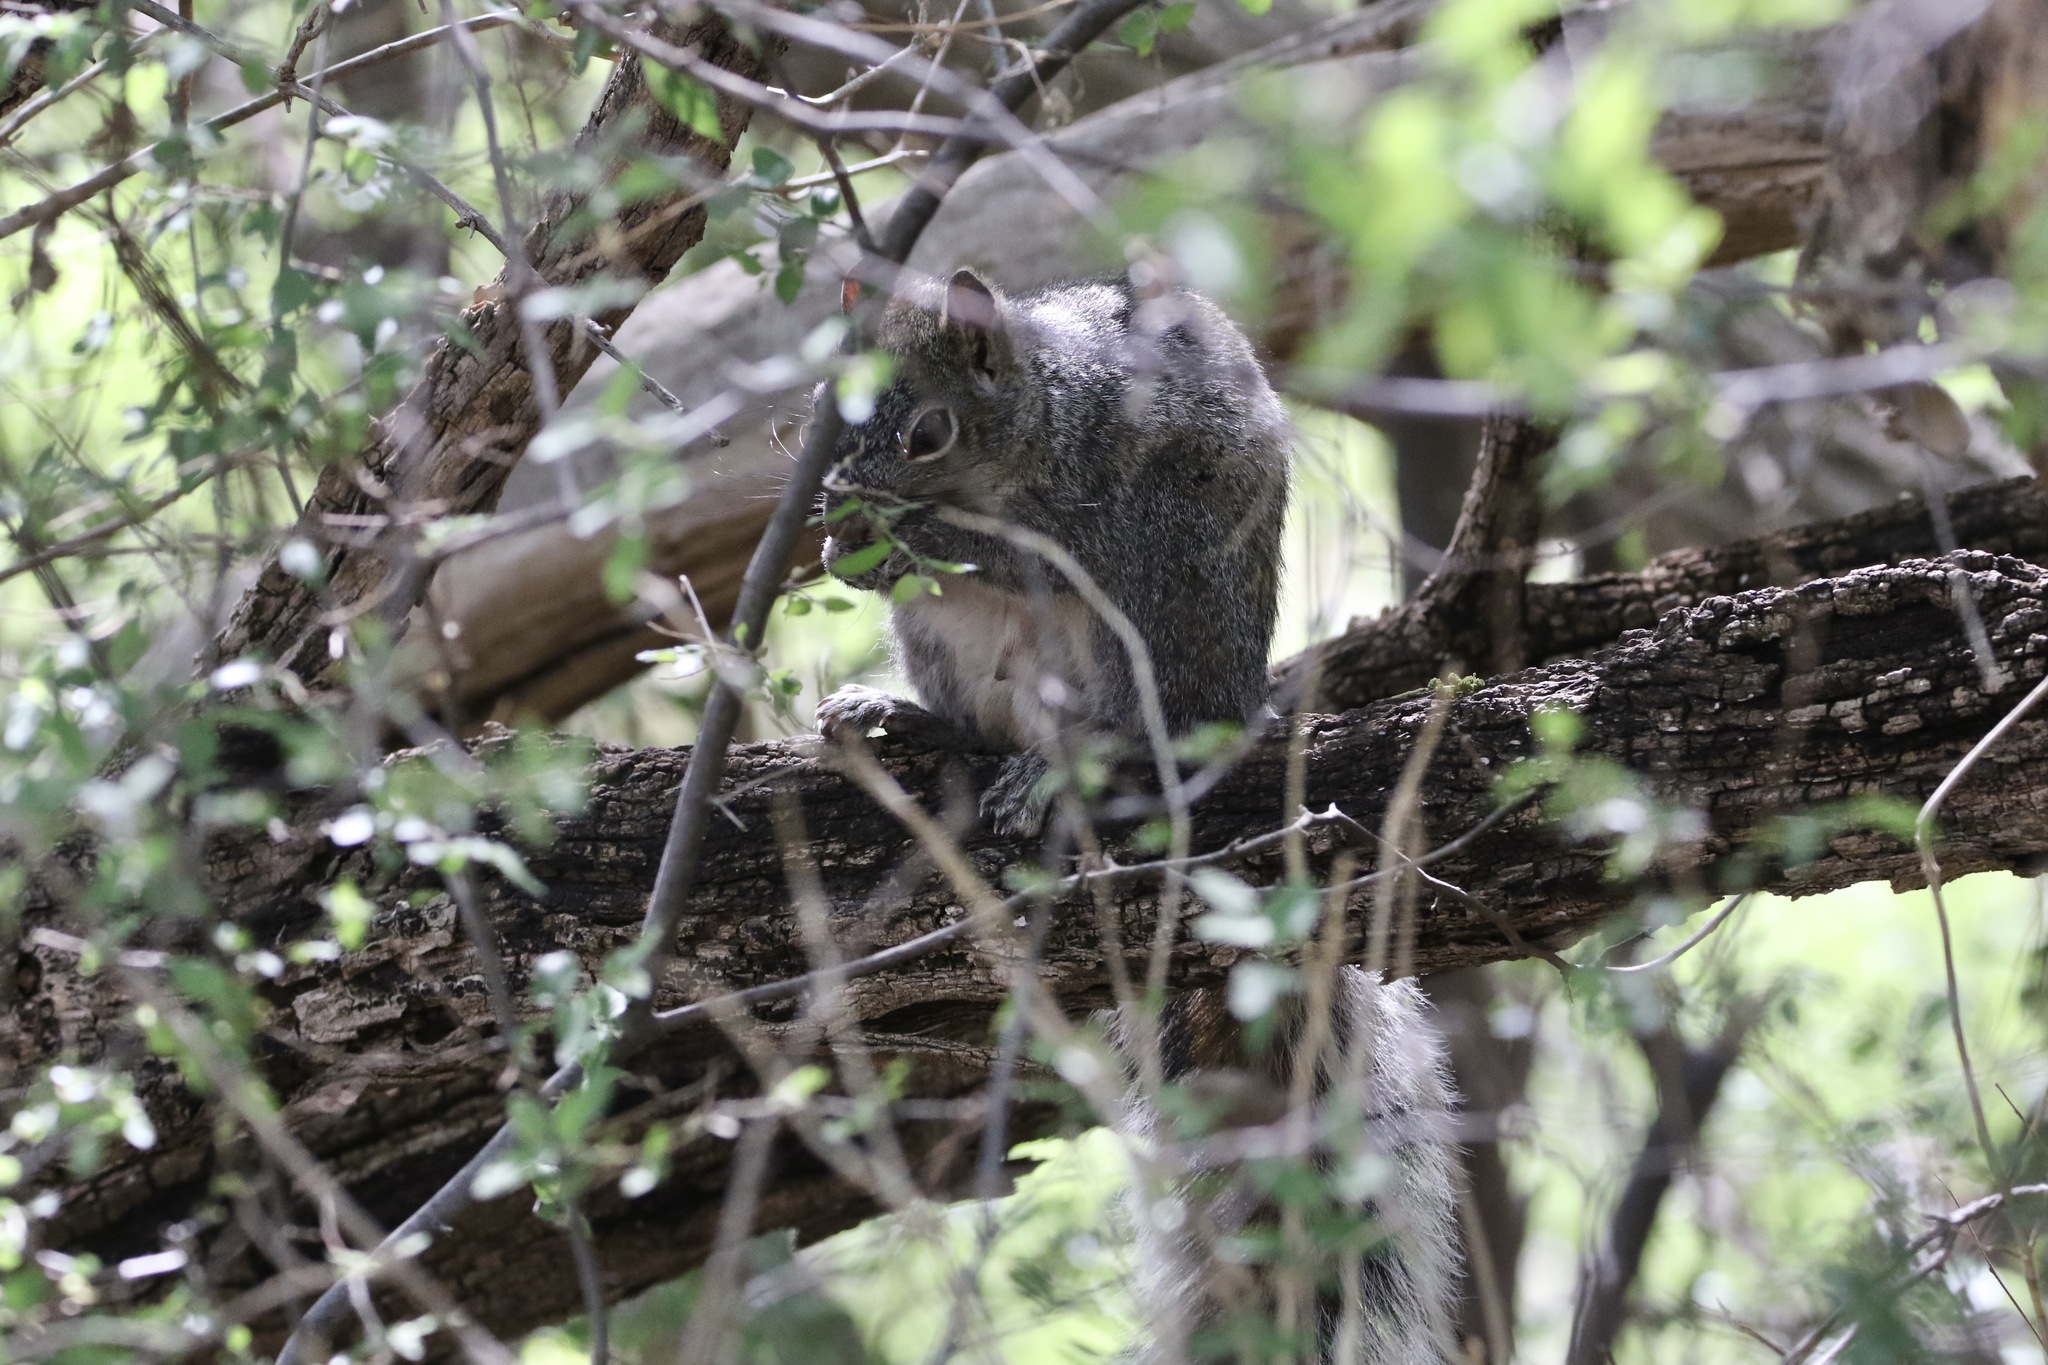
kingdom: Animalia
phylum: Chordata
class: Mammalia
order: Rodentia
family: Sciuridae
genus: Sciurus
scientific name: Sciurus arizonensis
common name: Arizona gray squirrel
